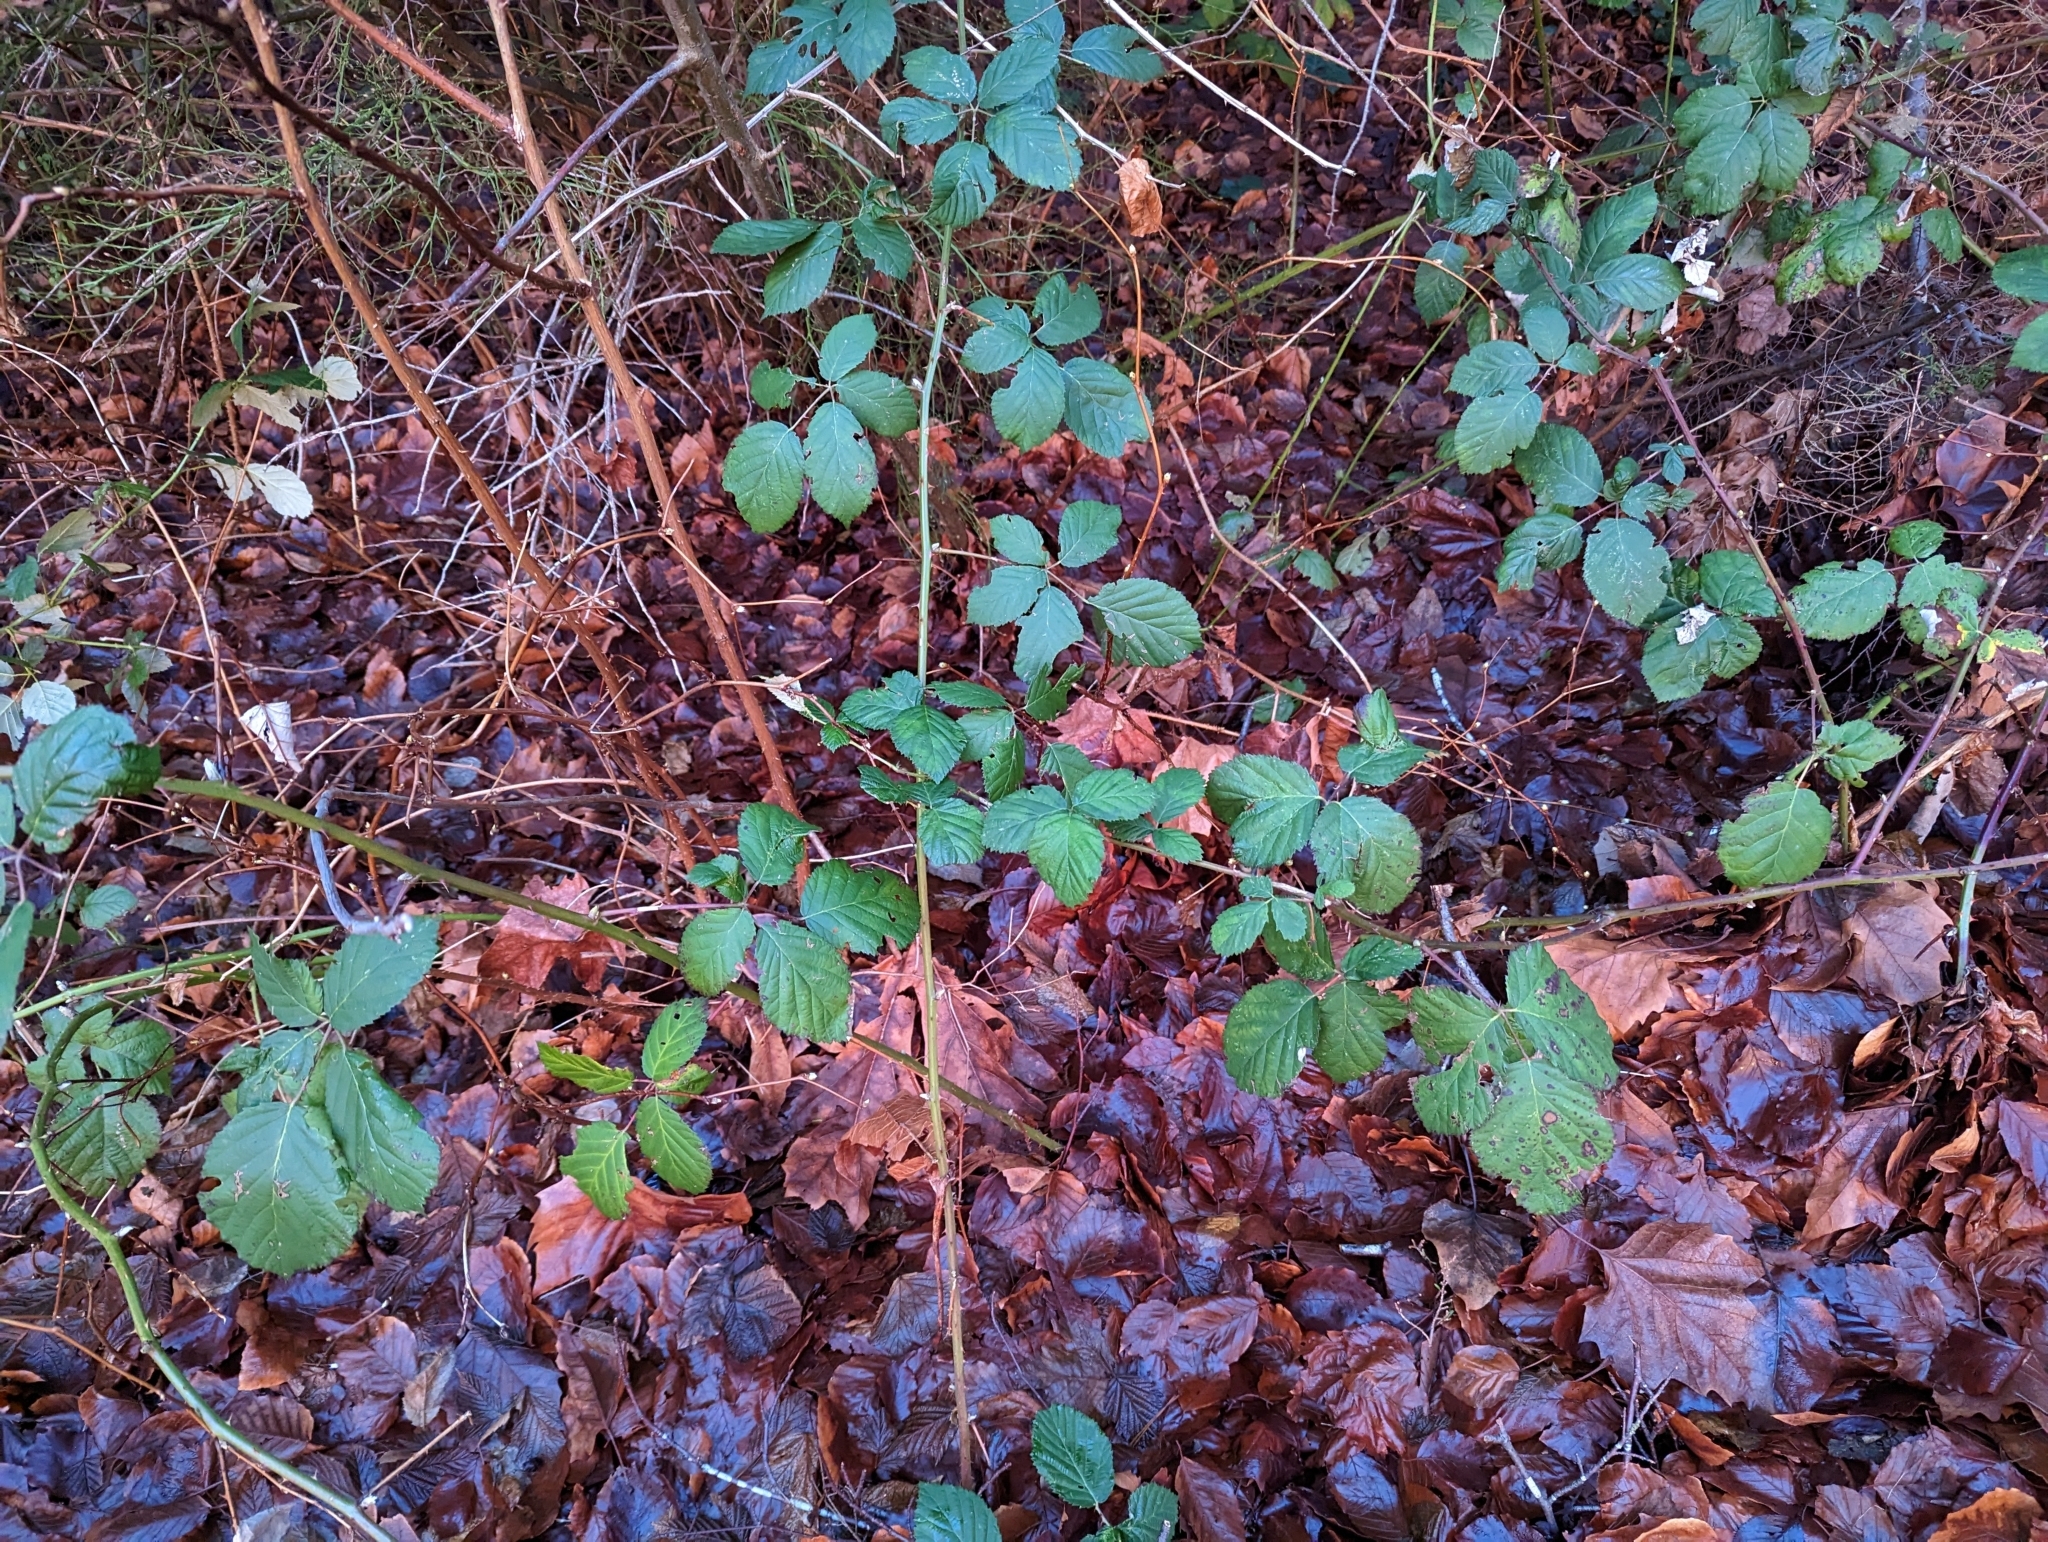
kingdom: Plantae
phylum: Tracheophyta
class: Magnoliopsida
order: Rosales
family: Rosaceae
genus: Rubus
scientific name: Rubus bifrons
